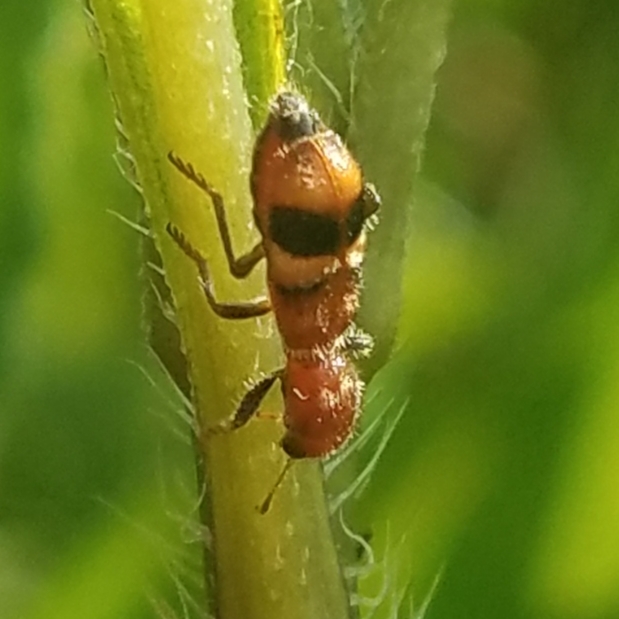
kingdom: Animalia
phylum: Arthropoda
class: Insecta
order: Coleoptera
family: Cleridae
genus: Enoclerus
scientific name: Enoclerus rosmarus
